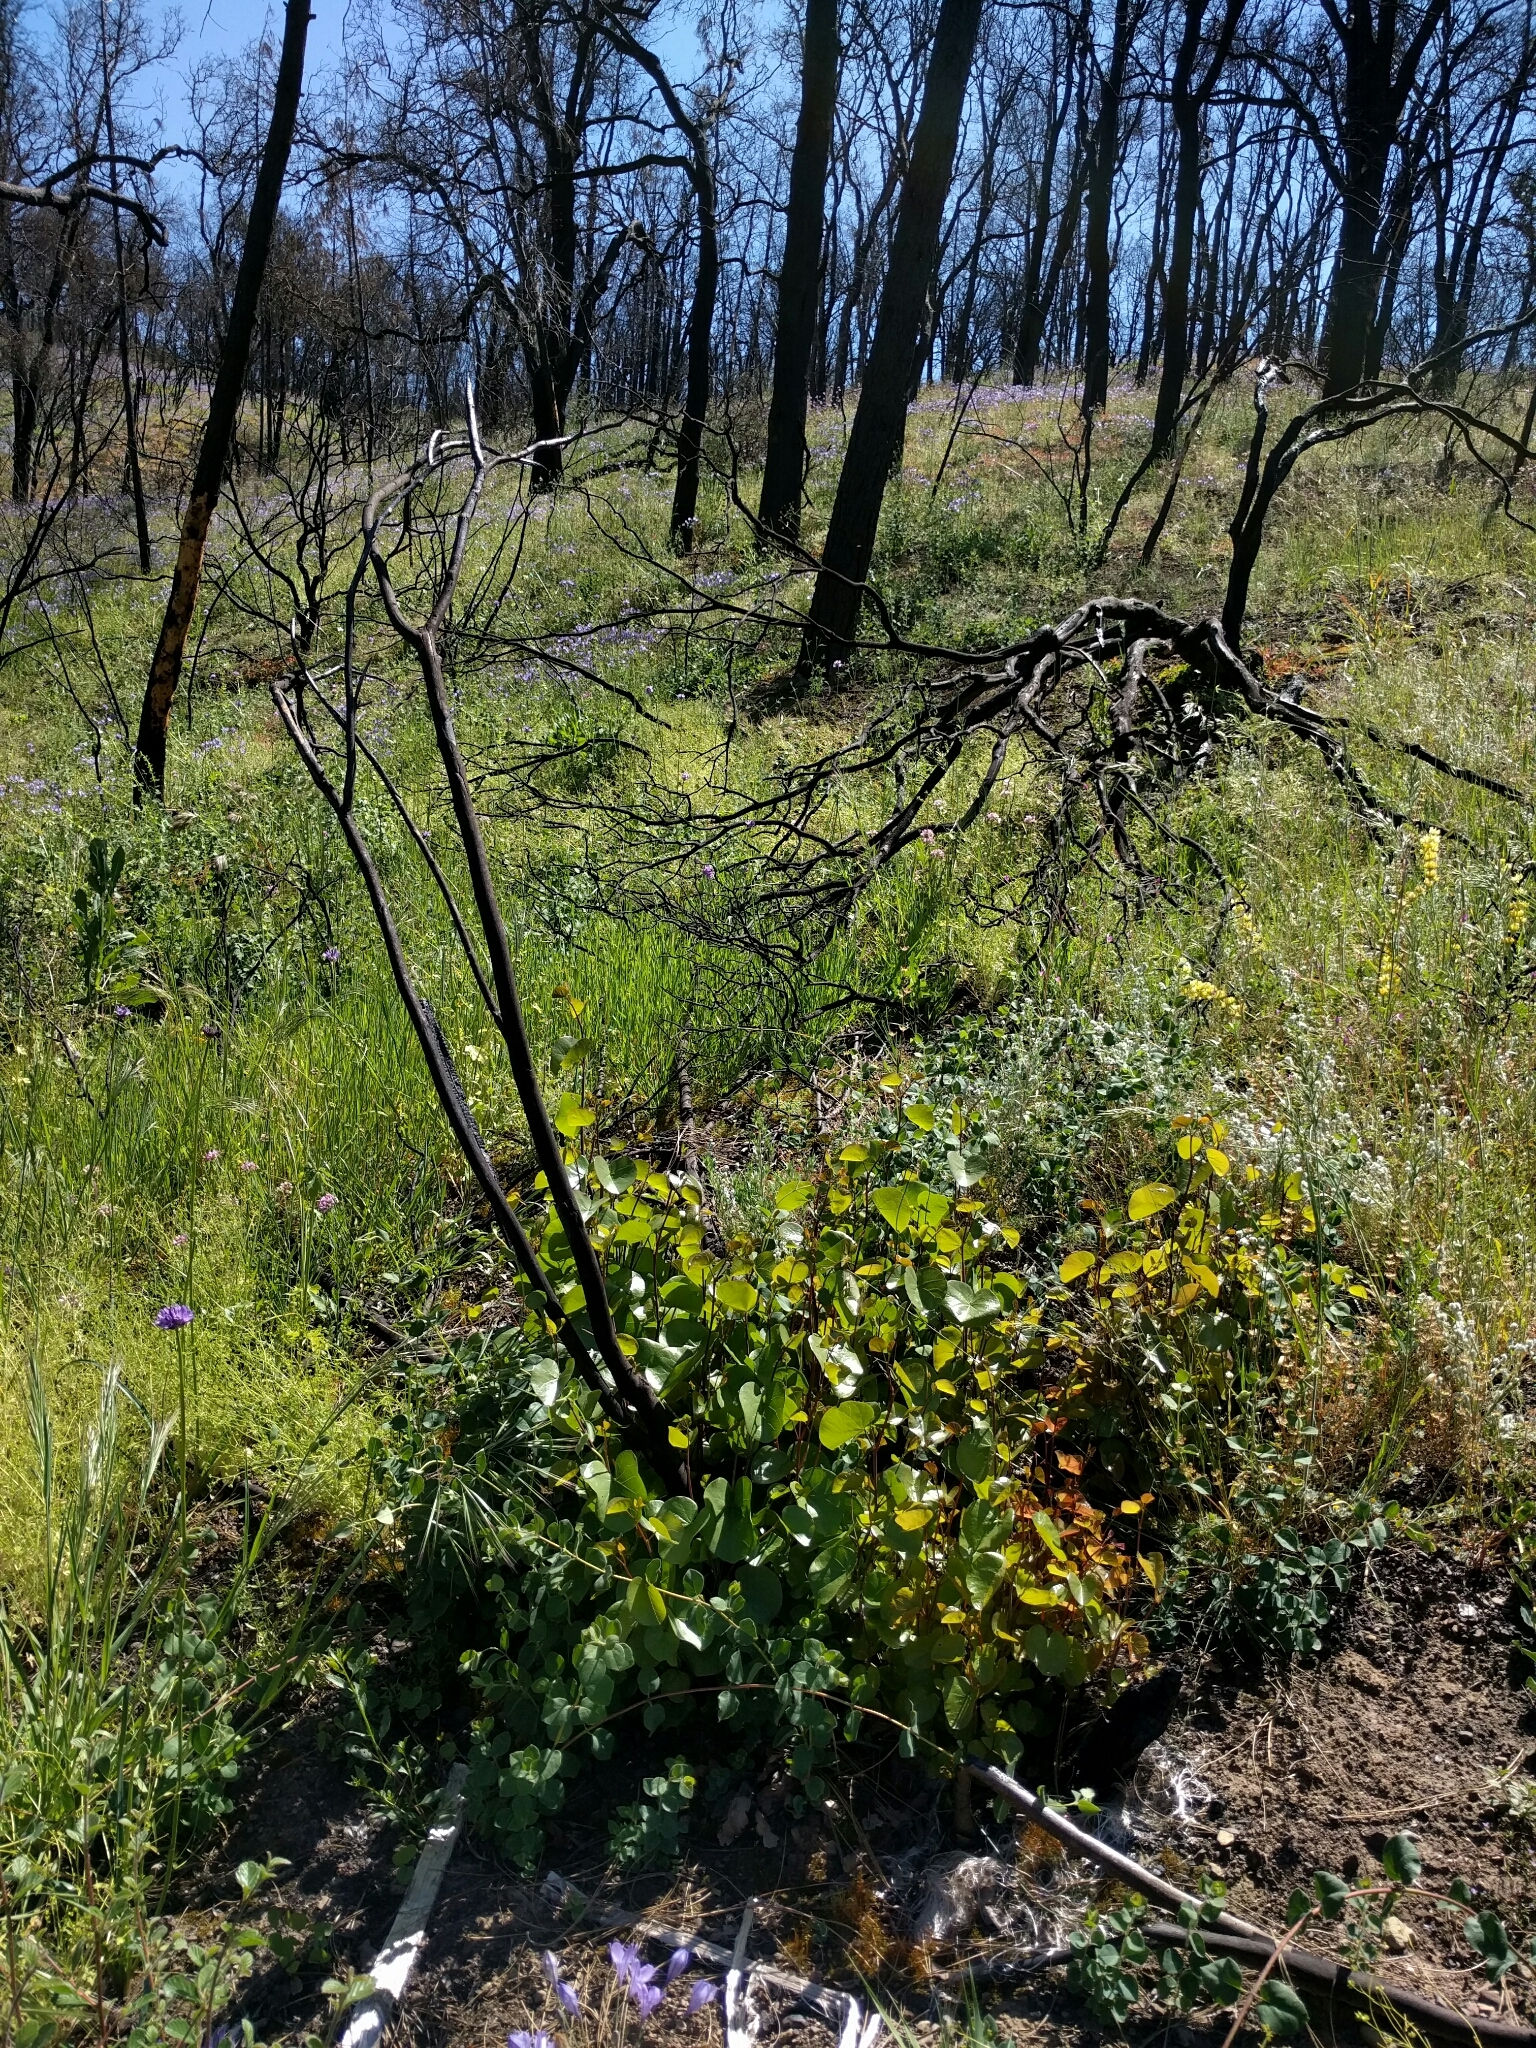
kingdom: Plantae
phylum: Tracheophyta
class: Magnoliopsida
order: Fabales
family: Fabaceae
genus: Cercis
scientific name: Cercis occidentalis
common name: California redbud
